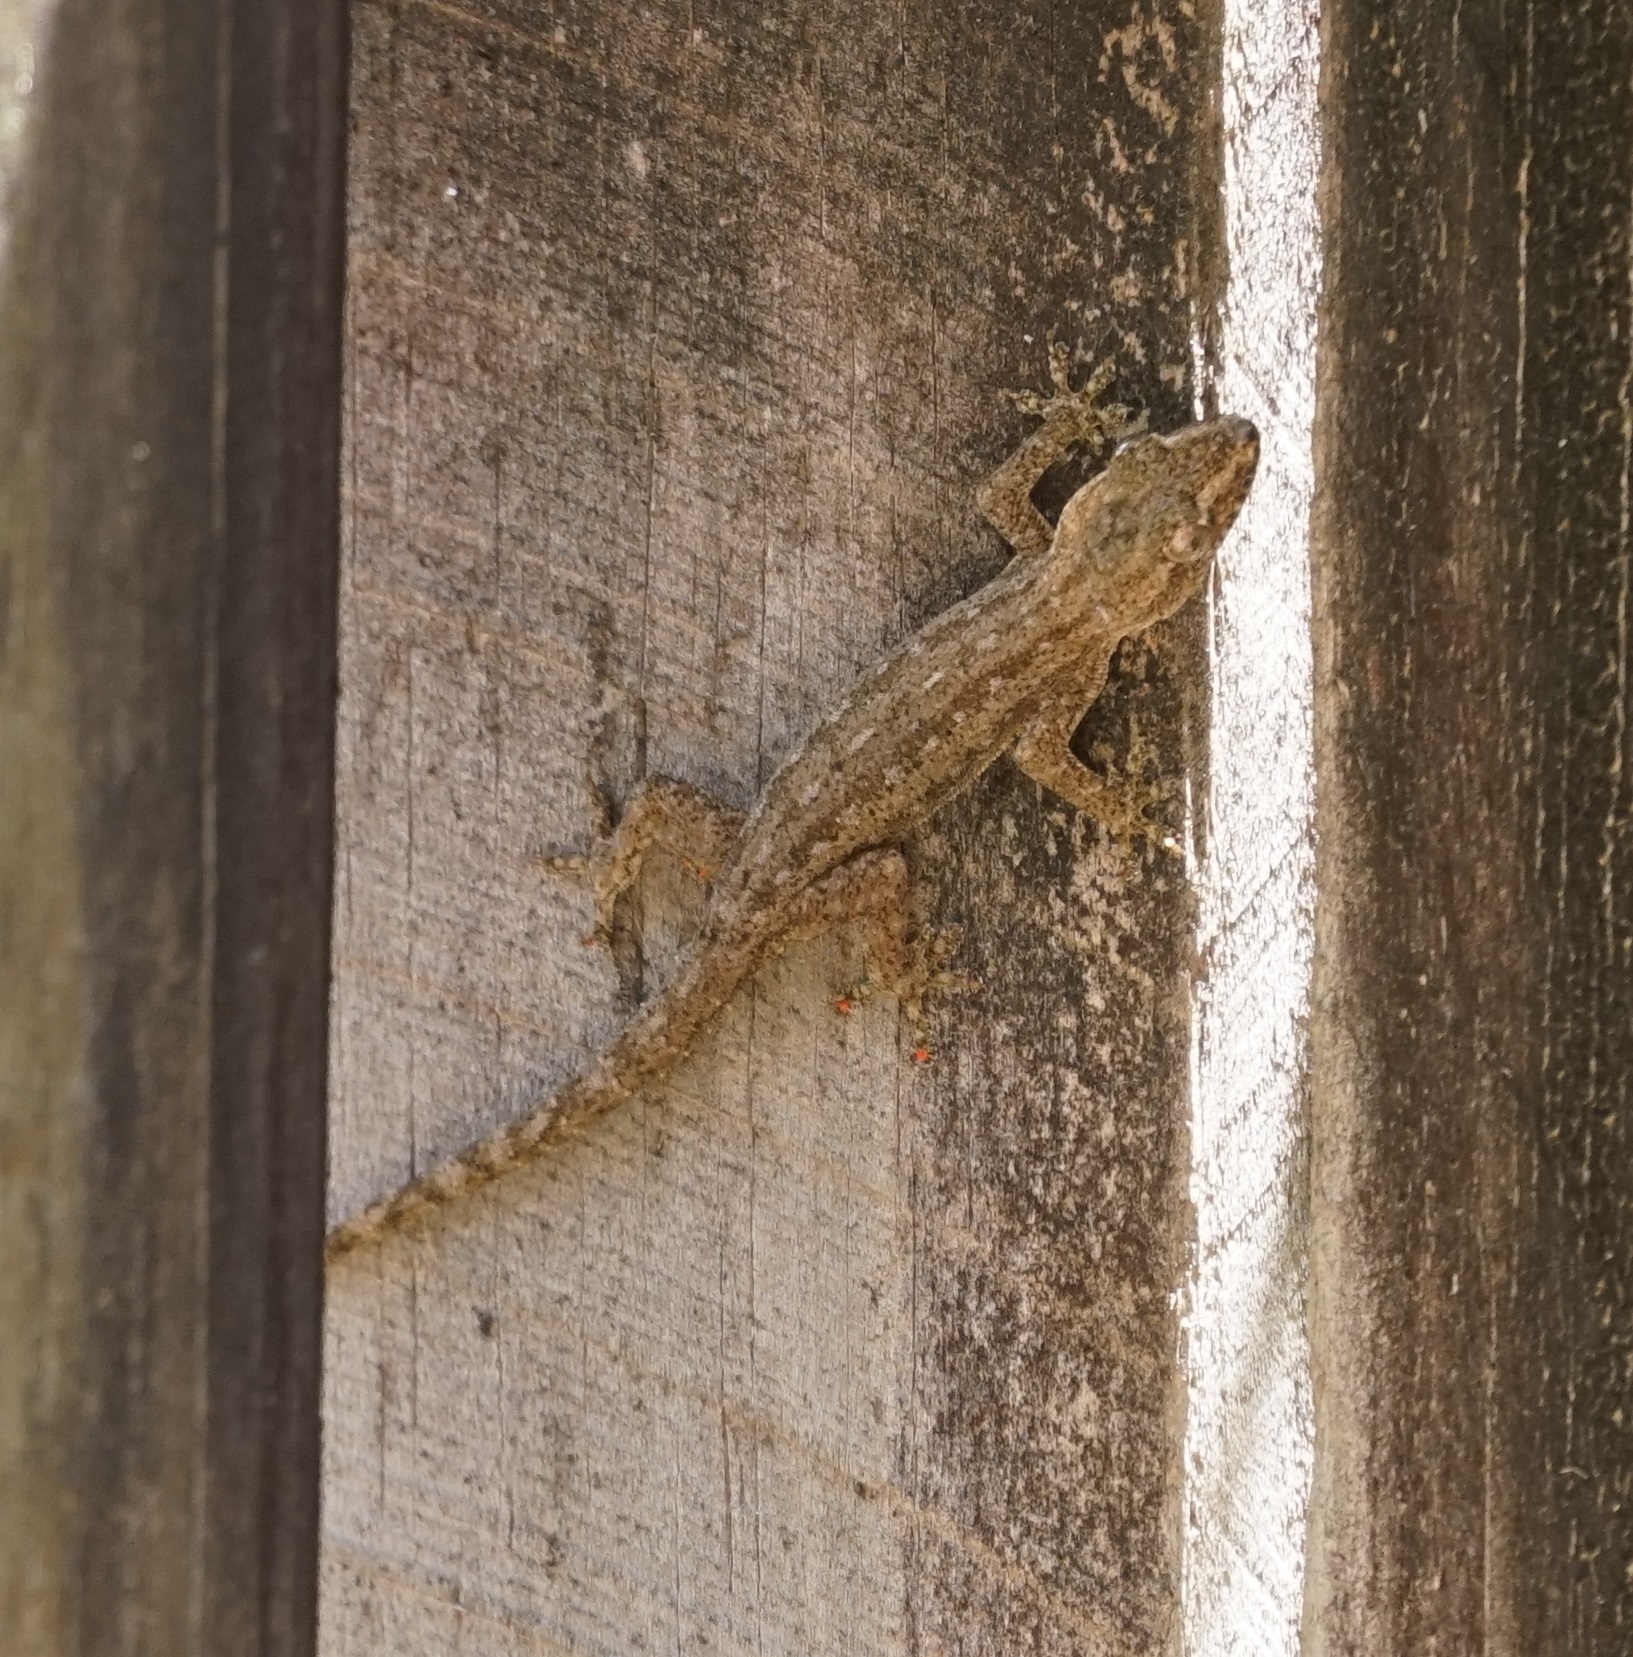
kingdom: Animalia
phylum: Chordata
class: Squamata
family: Gekkonidae
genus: Hemidactylus
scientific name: Hemidactylus frenatus
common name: Common house gecko
